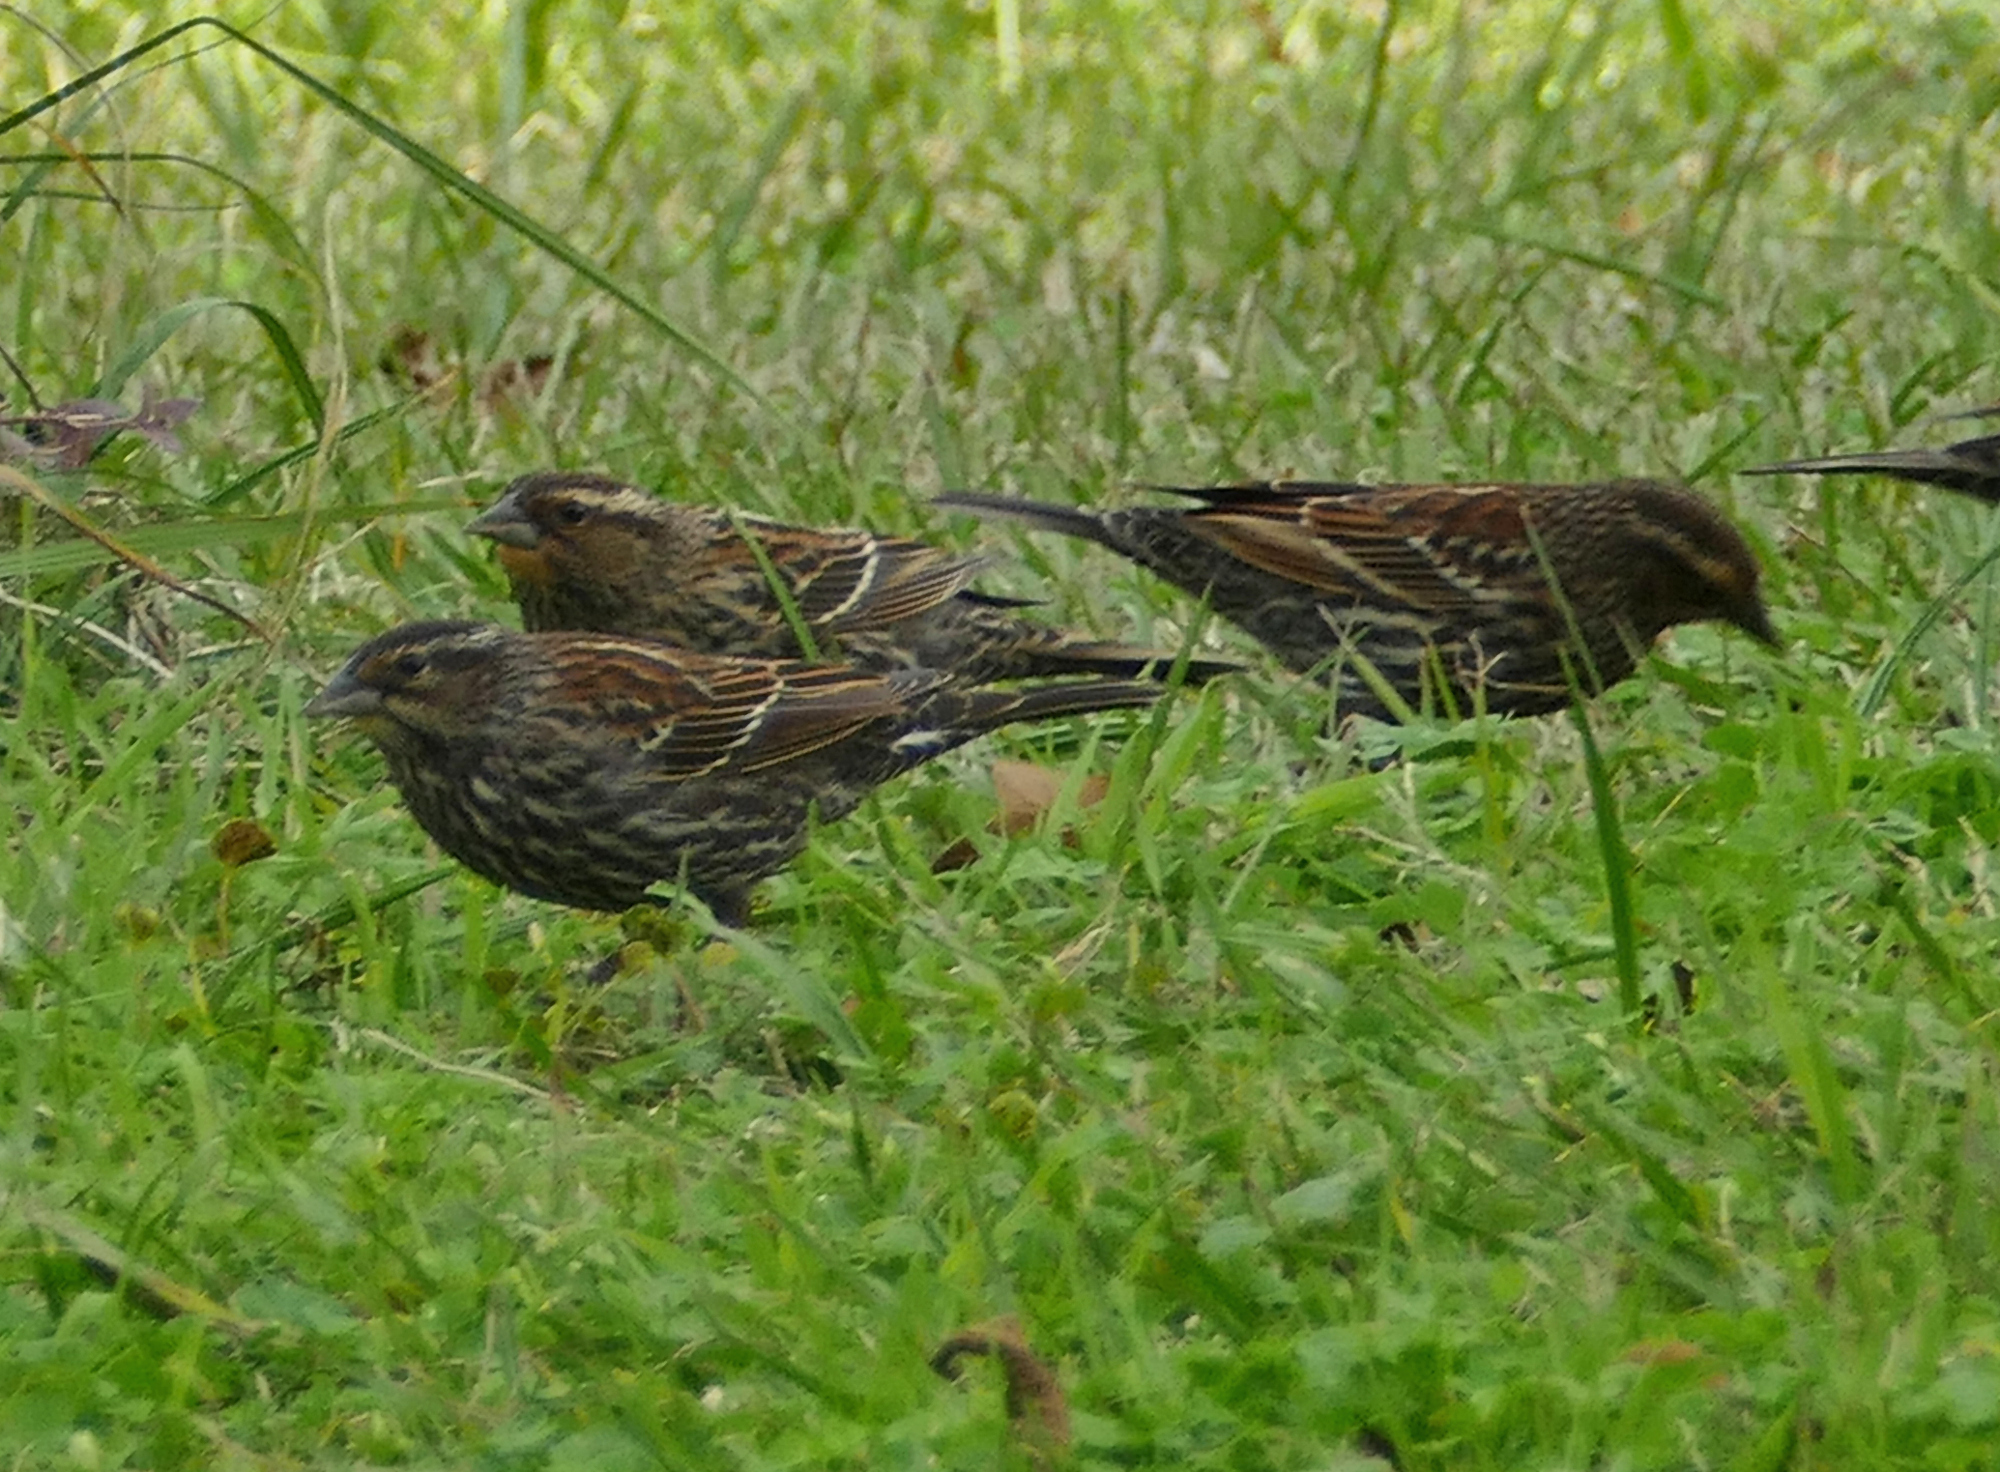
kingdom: Animalia
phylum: Chordata
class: Aves
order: Passeriformes
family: Icteridae
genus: Agelaius
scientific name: Agelaius phoeniceus
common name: Red-winged blackbird
